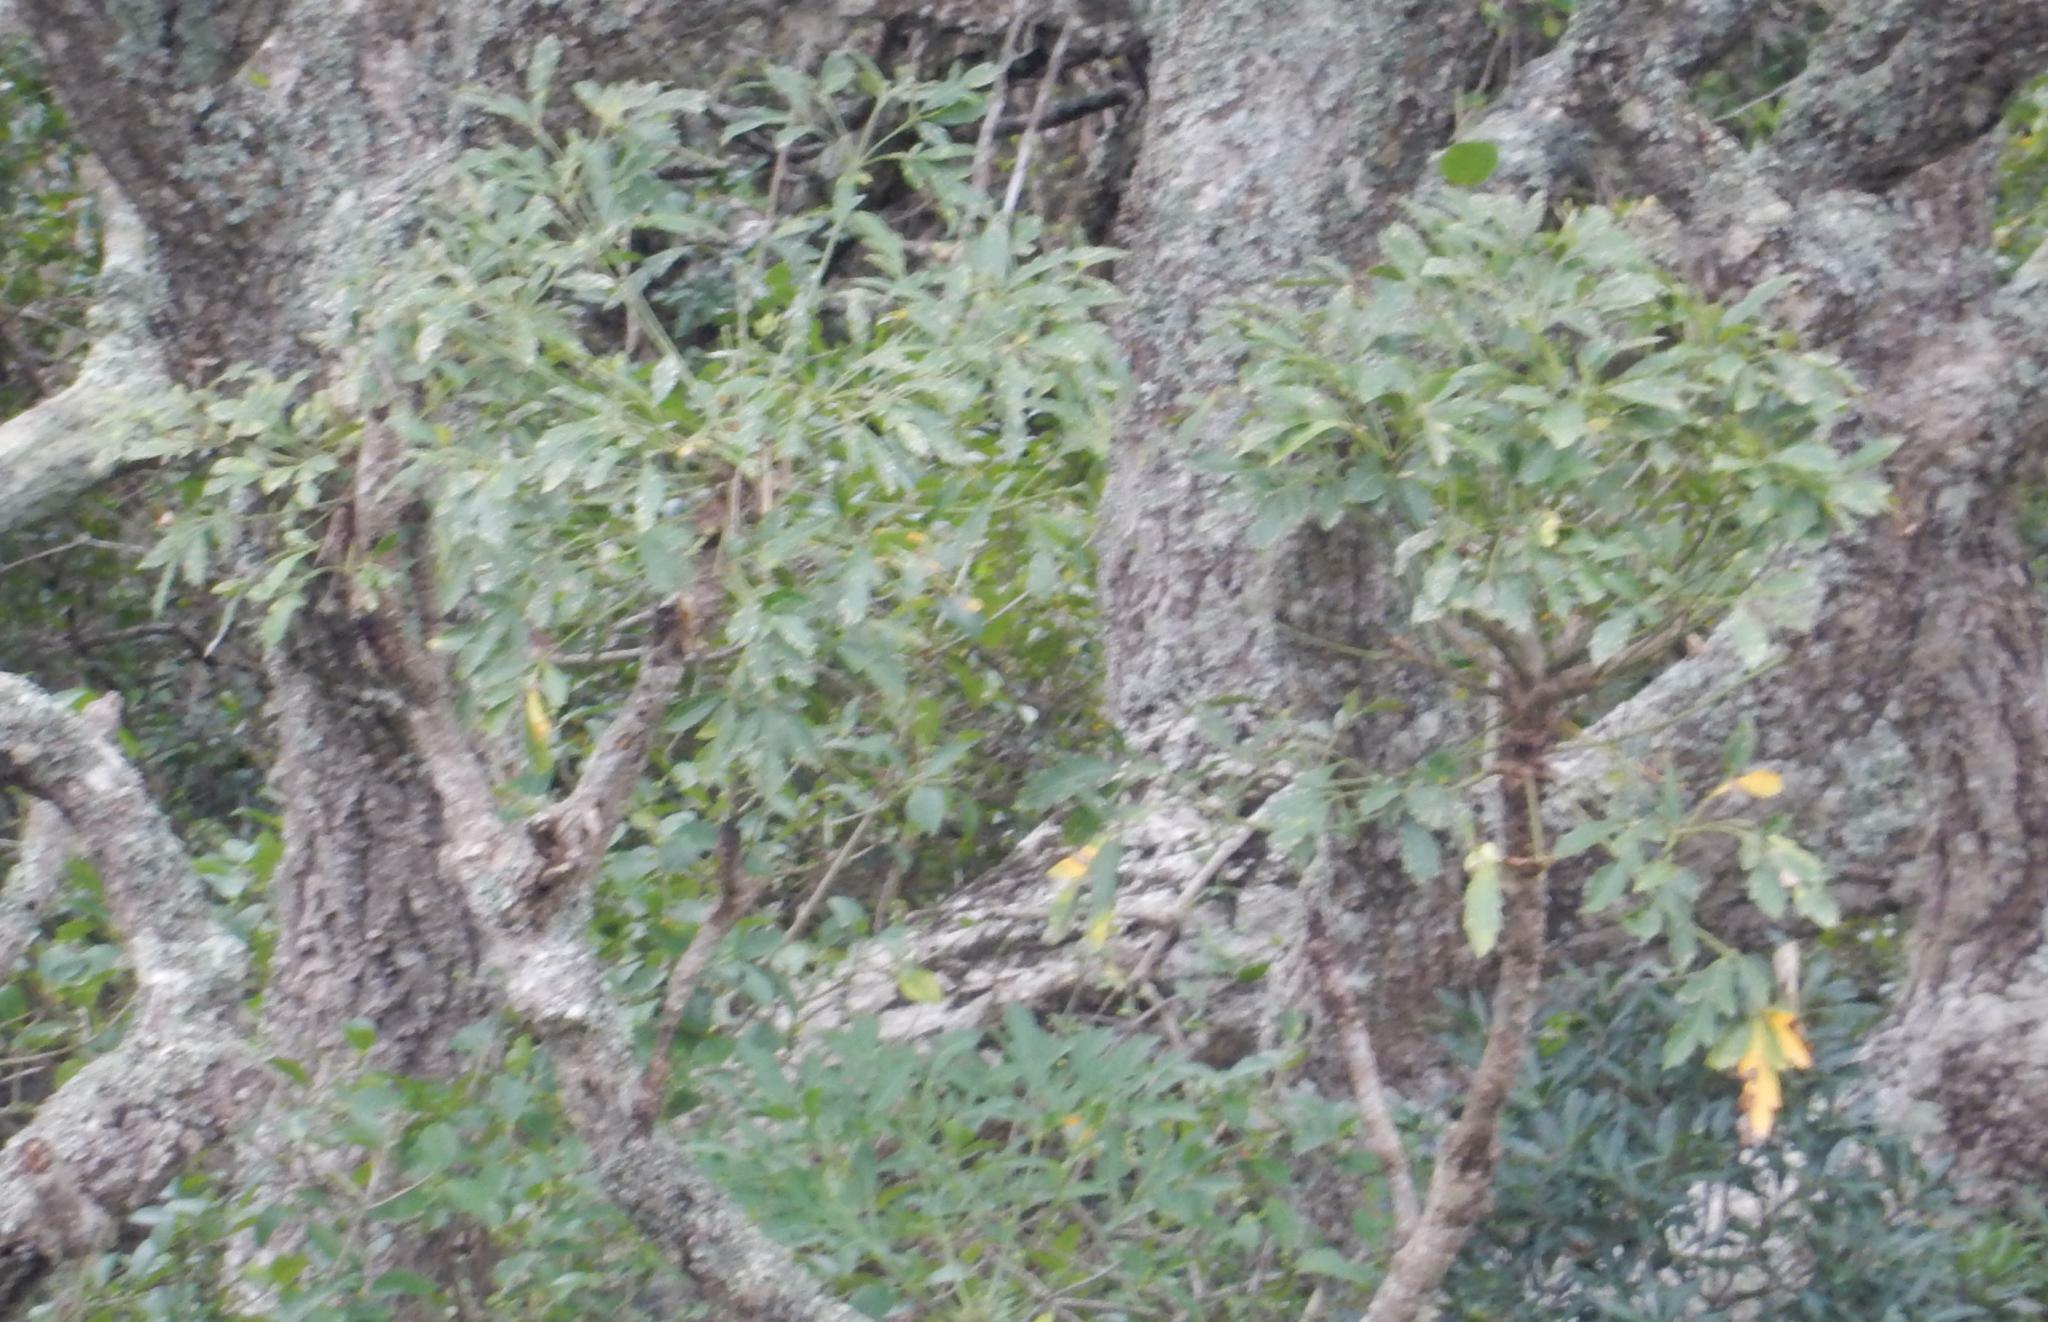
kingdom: Plantae
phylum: Tracheophyta
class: Magnoliopsida
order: Apiales
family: Araliaceae
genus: Cussonia
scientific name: Cussonia spicata
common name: Common cabbagetree
